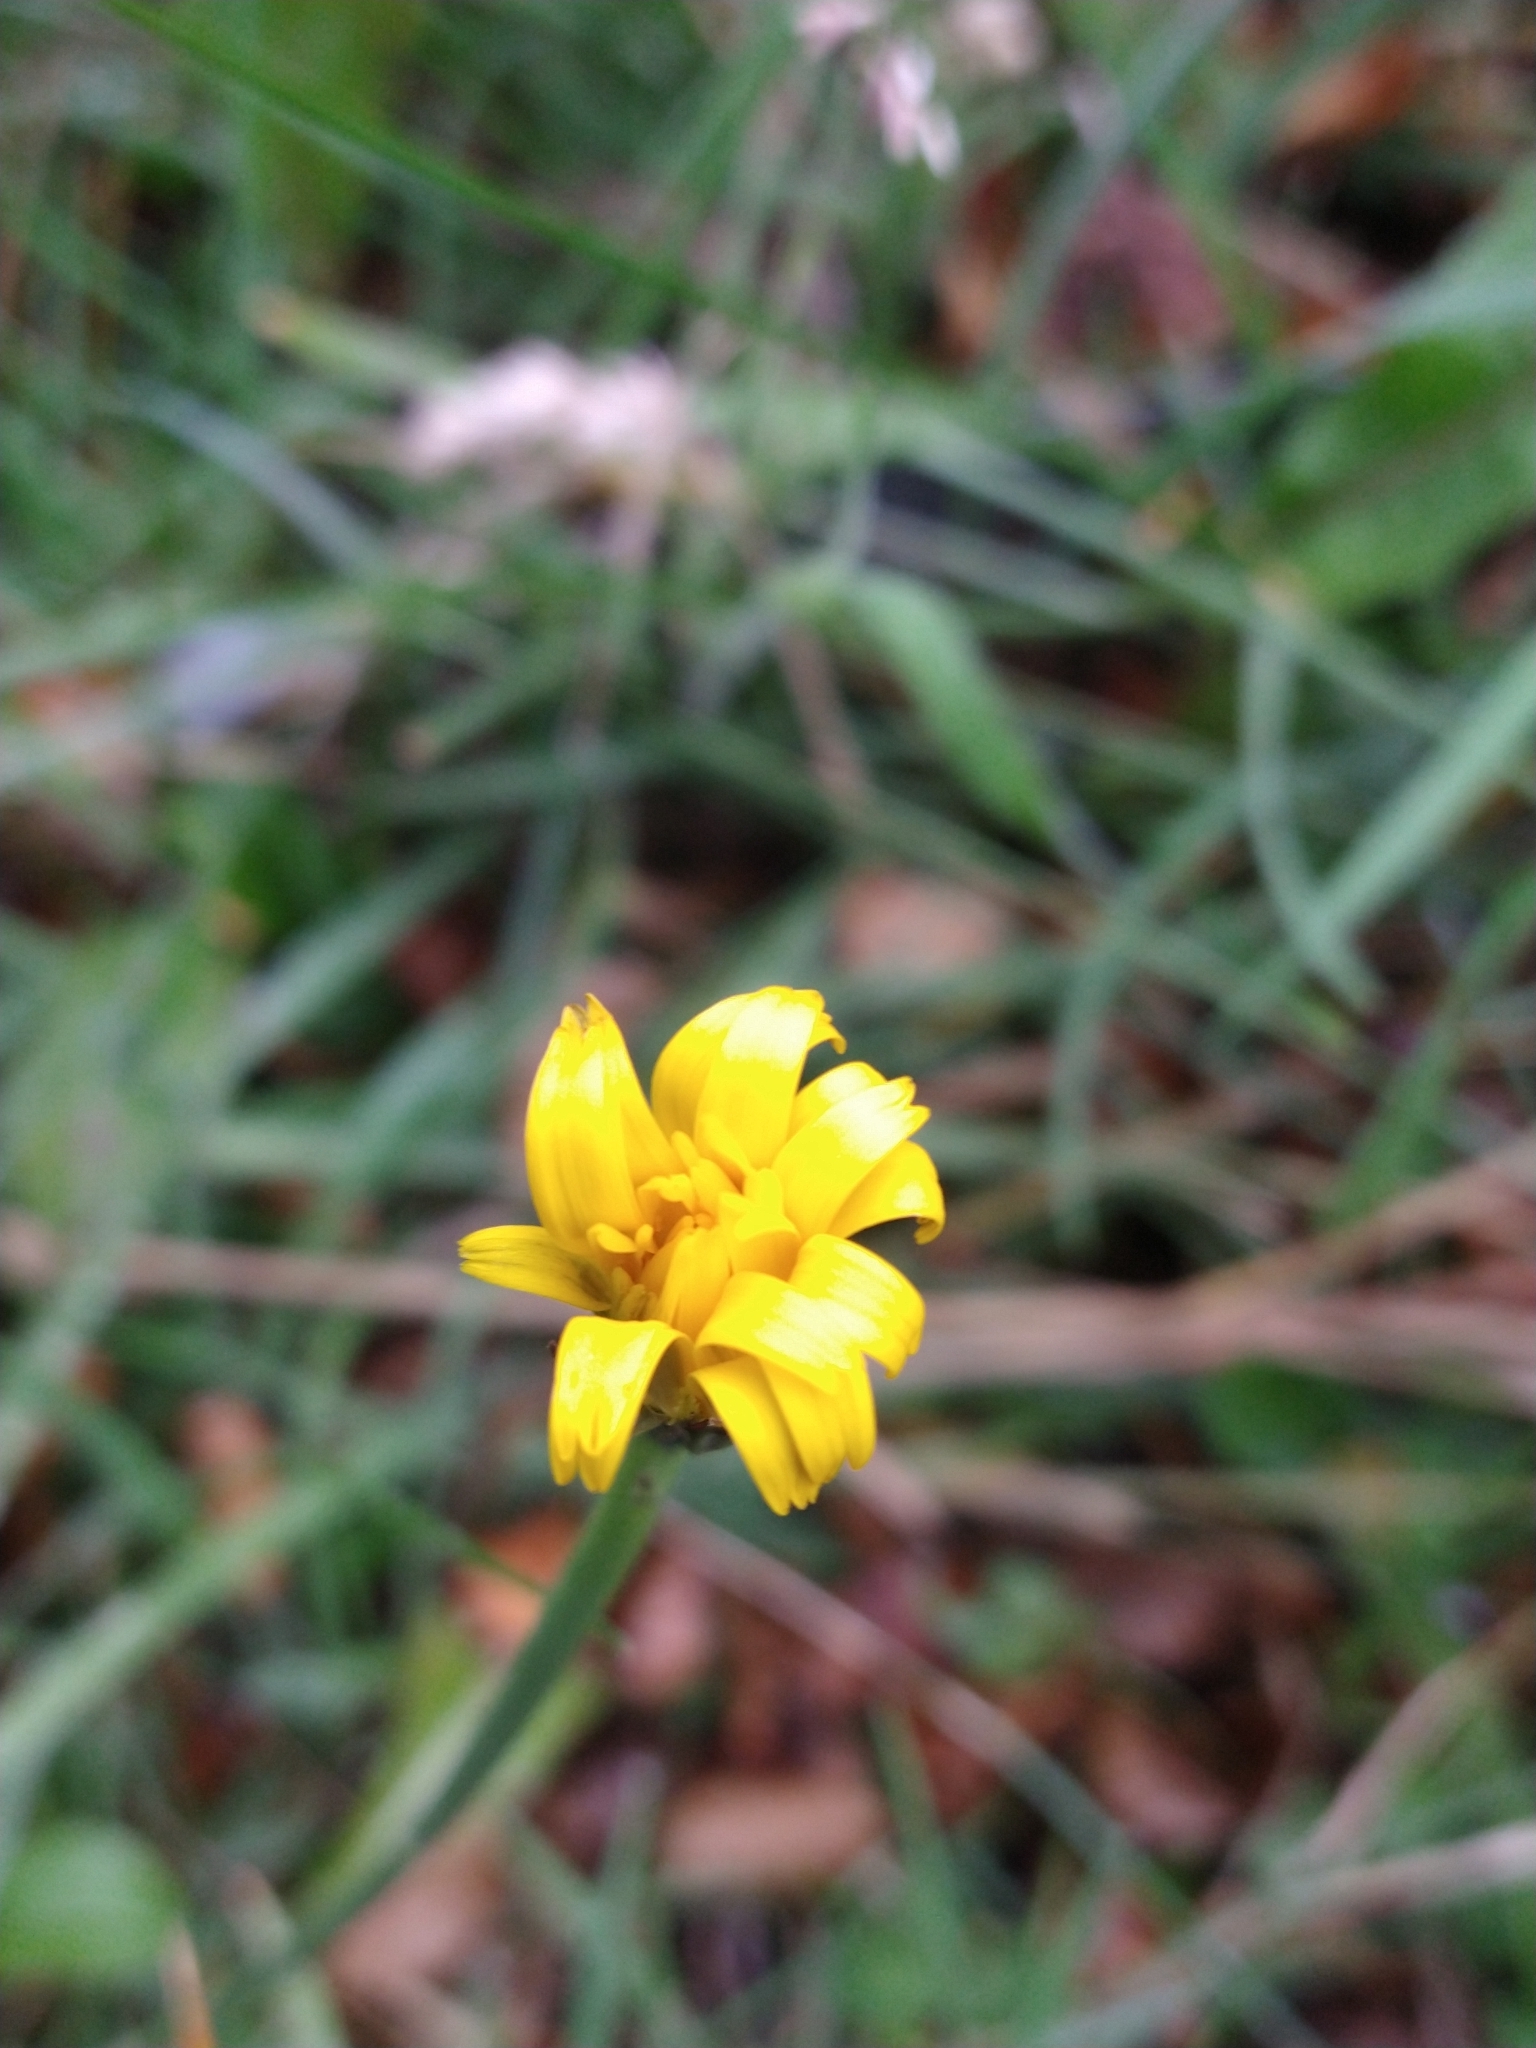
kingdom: Plantae
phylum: Tracheophyta
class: Magnoliopsida
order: Asterales
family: Asteraceae
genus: Hypochaeris
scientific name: Hypochaeris radicata
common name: Flatweed
